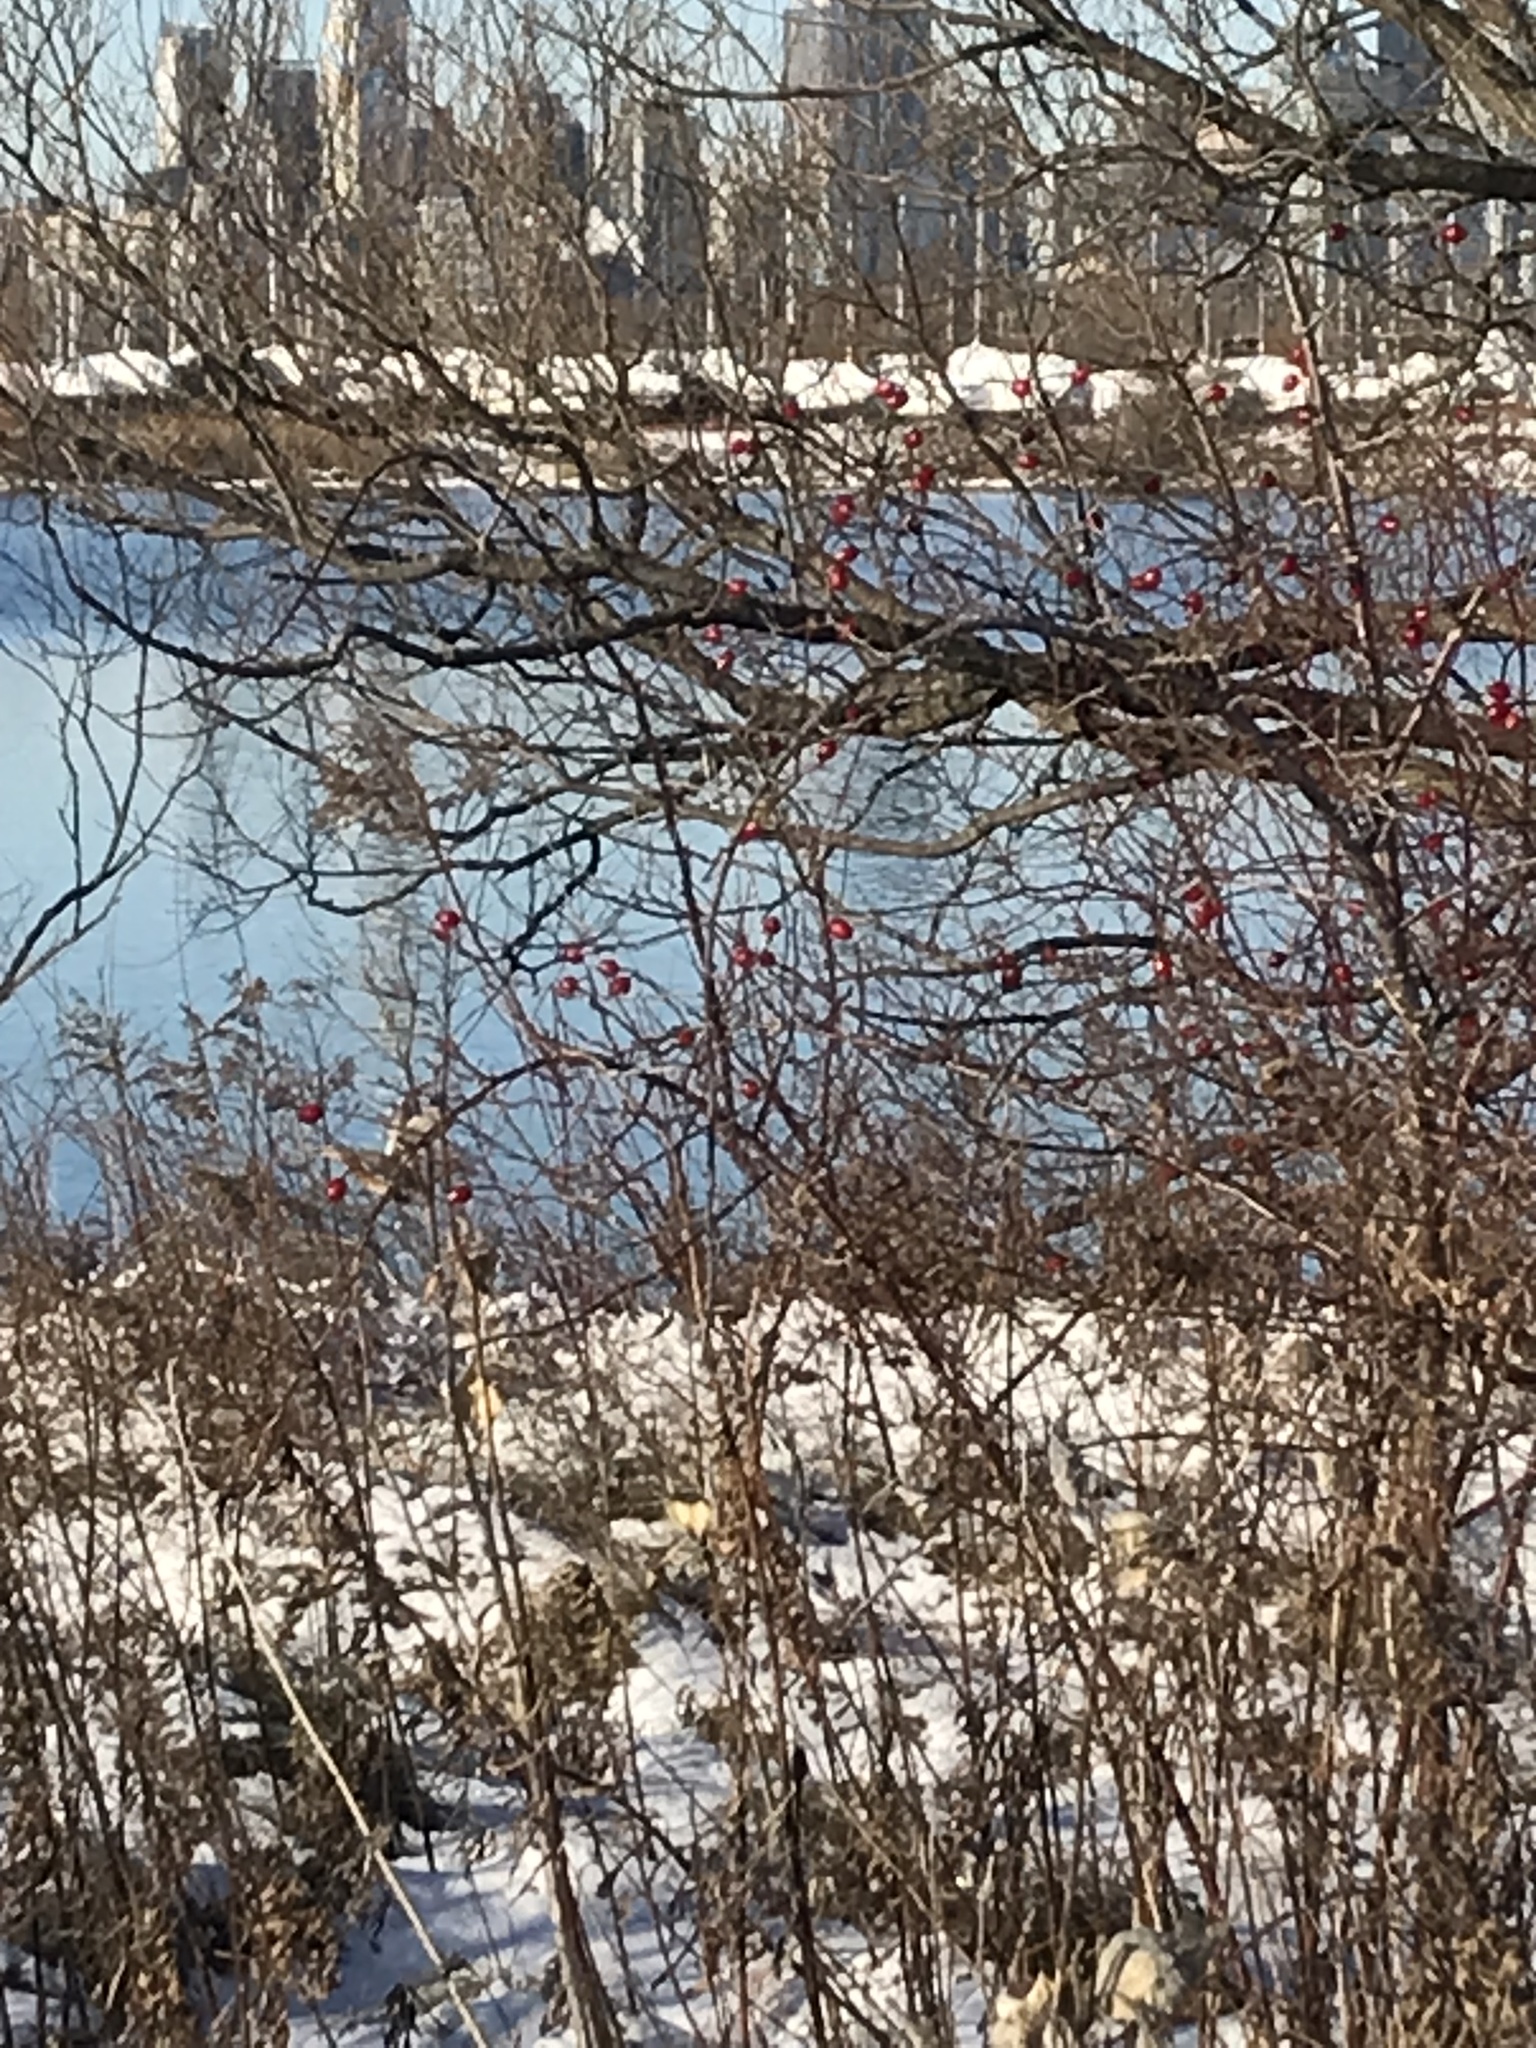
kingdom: Plantae
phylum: Tracheophyta
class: Magnoliopsida
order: Rosales
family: Rosaceae
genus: Rosa
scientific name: Rosa canina
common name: Dog rose
